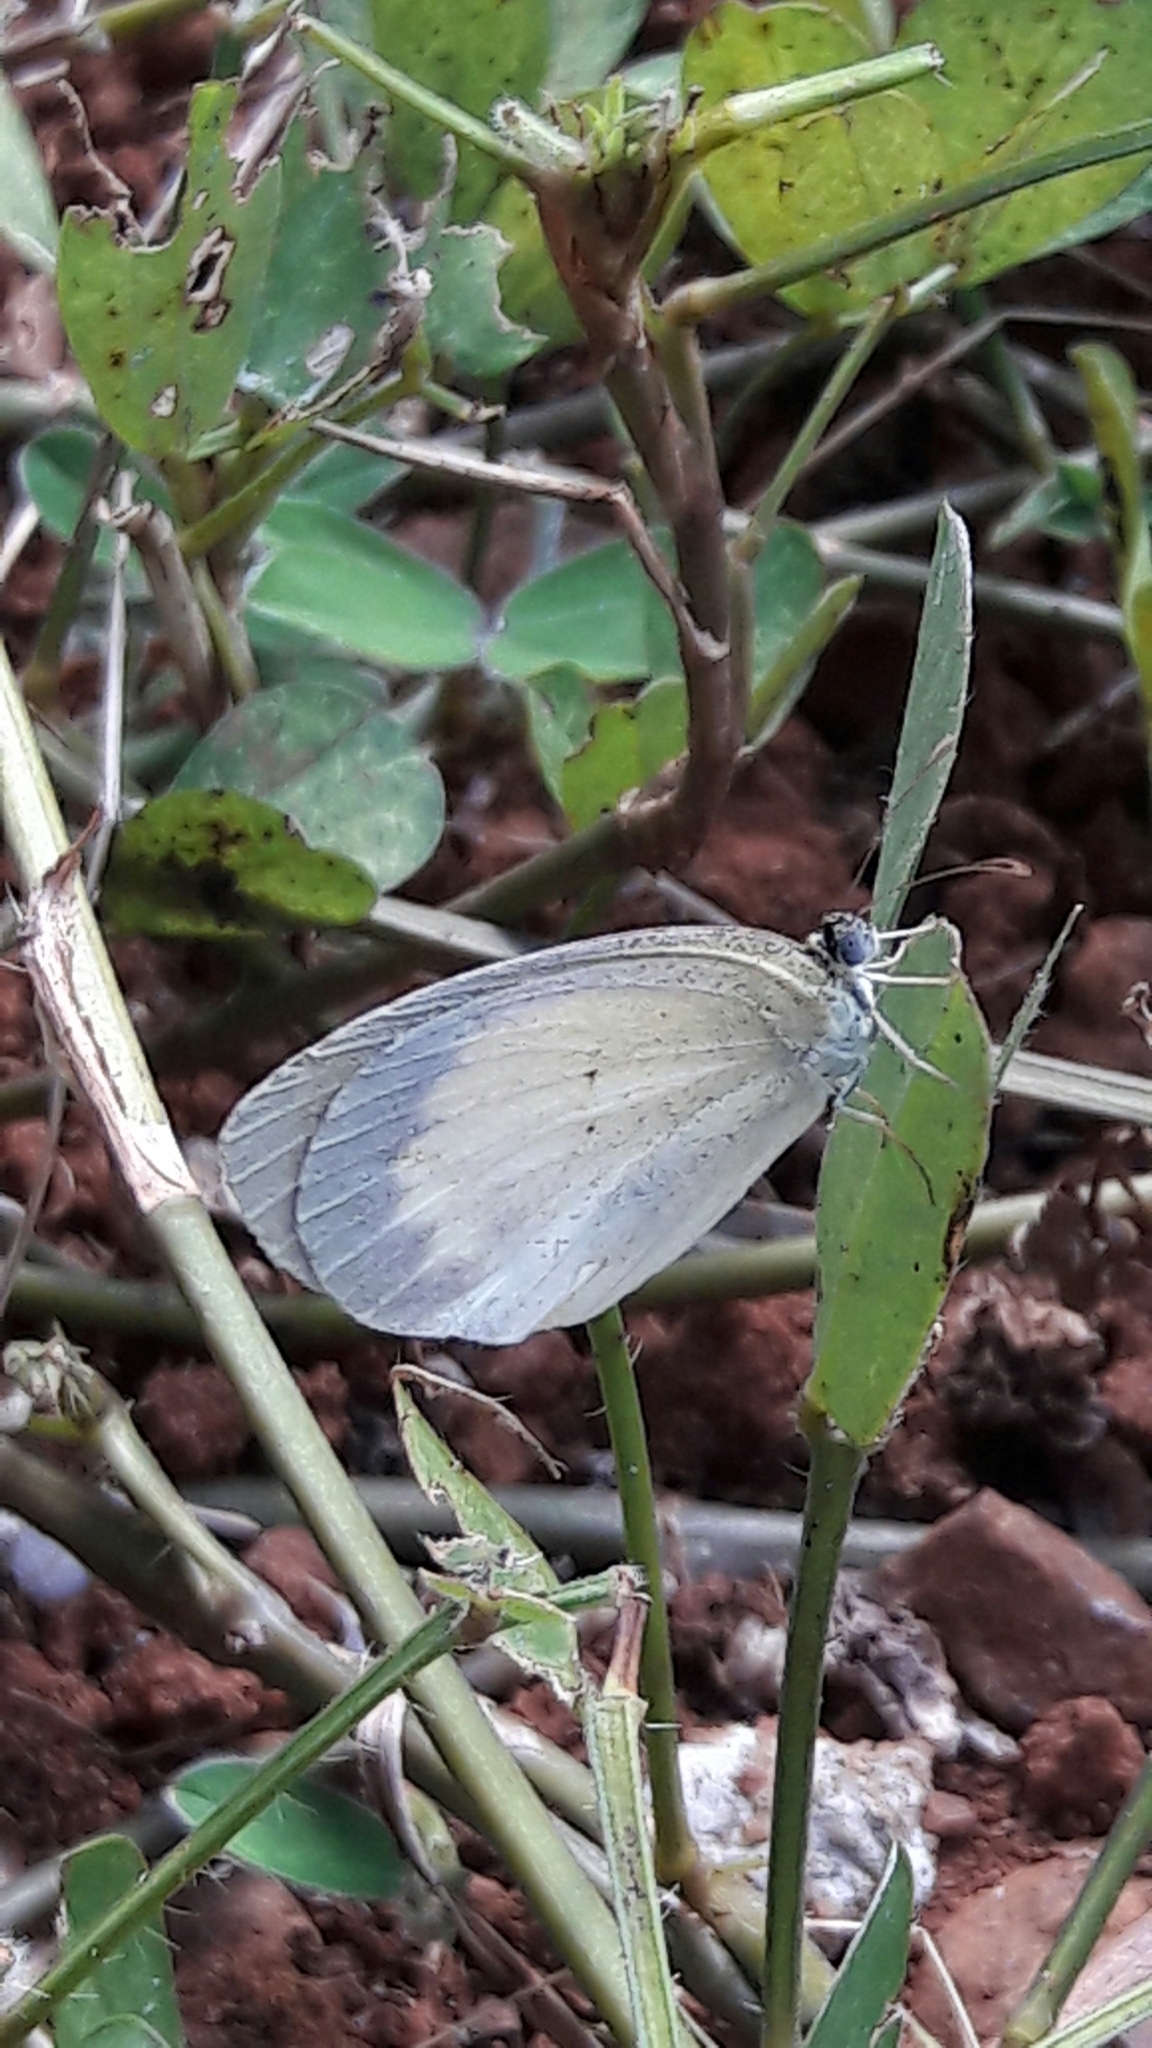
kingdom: Animalia
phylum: Arthropoda
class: Insecta
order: Lepidoptera
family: Pieridae
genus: Eurema
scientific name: Eurema elathea
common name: Banded yellow
